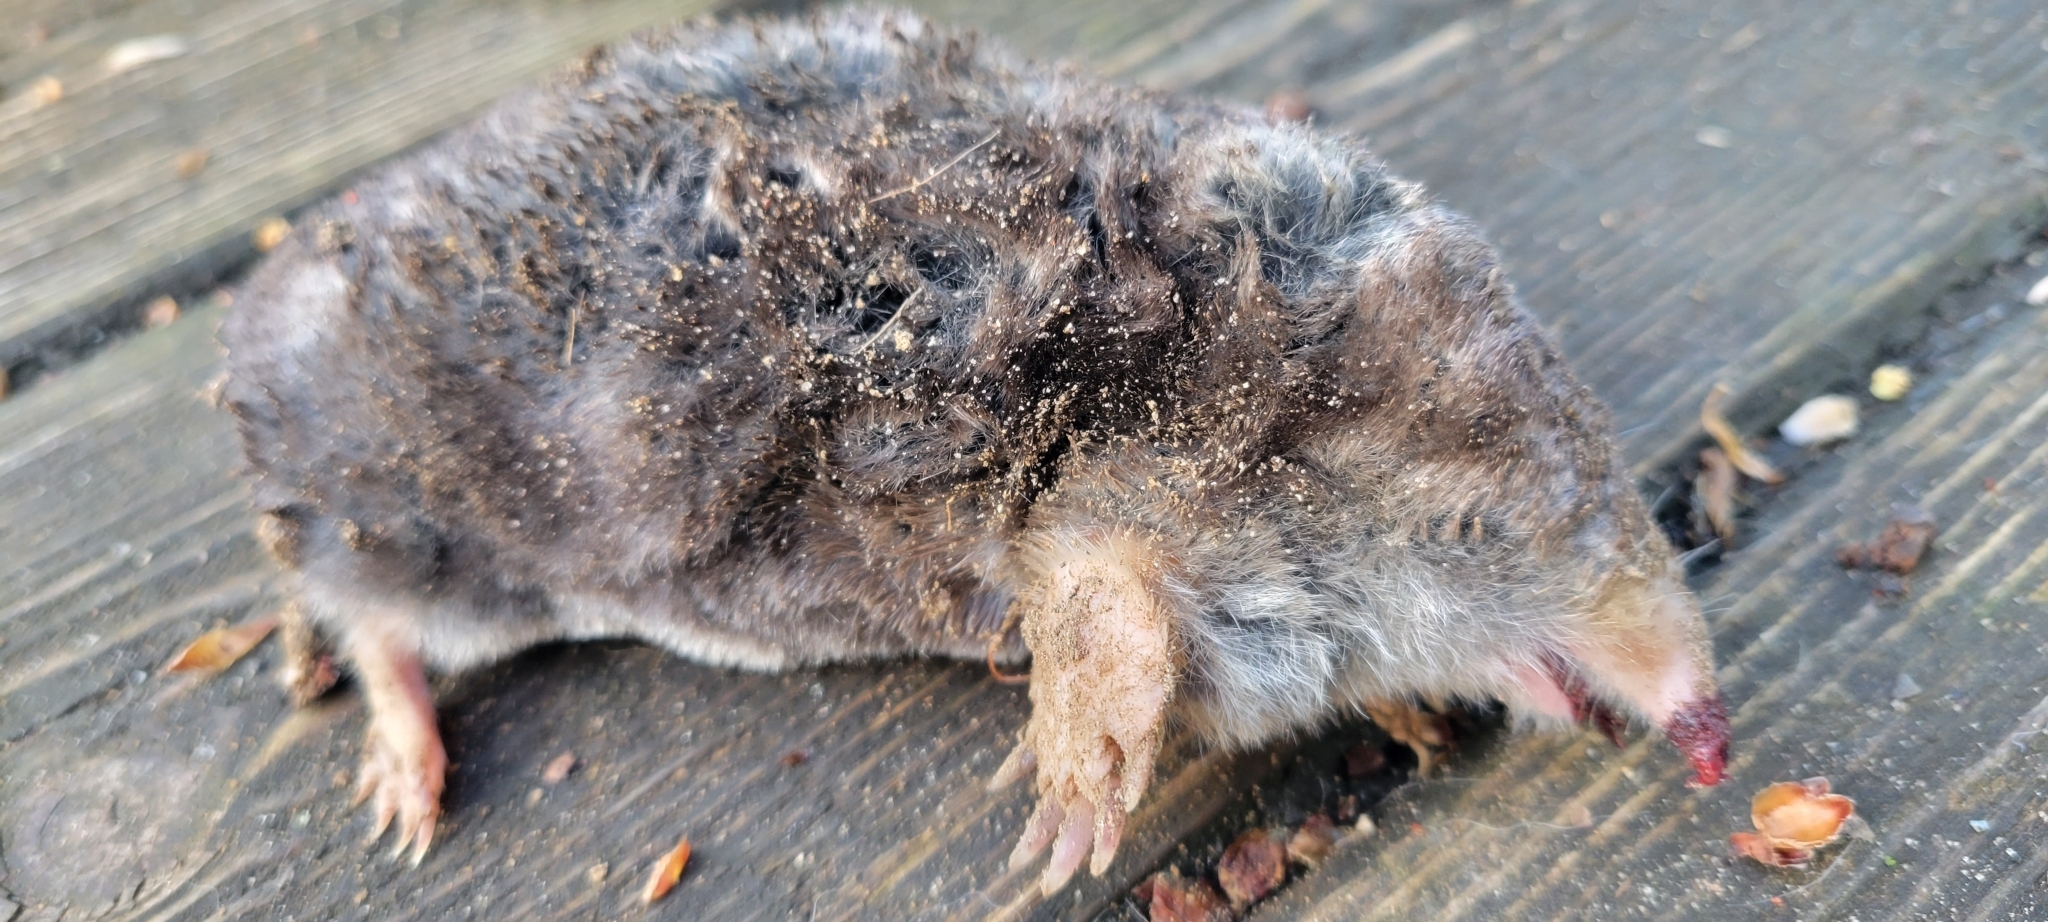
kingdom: Animalia
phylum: Chordata
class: Mammalia
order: Soricomorpha
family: Talpidae
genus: Scalopus
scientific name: Scalopus aquaticus
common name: Eastern mole
